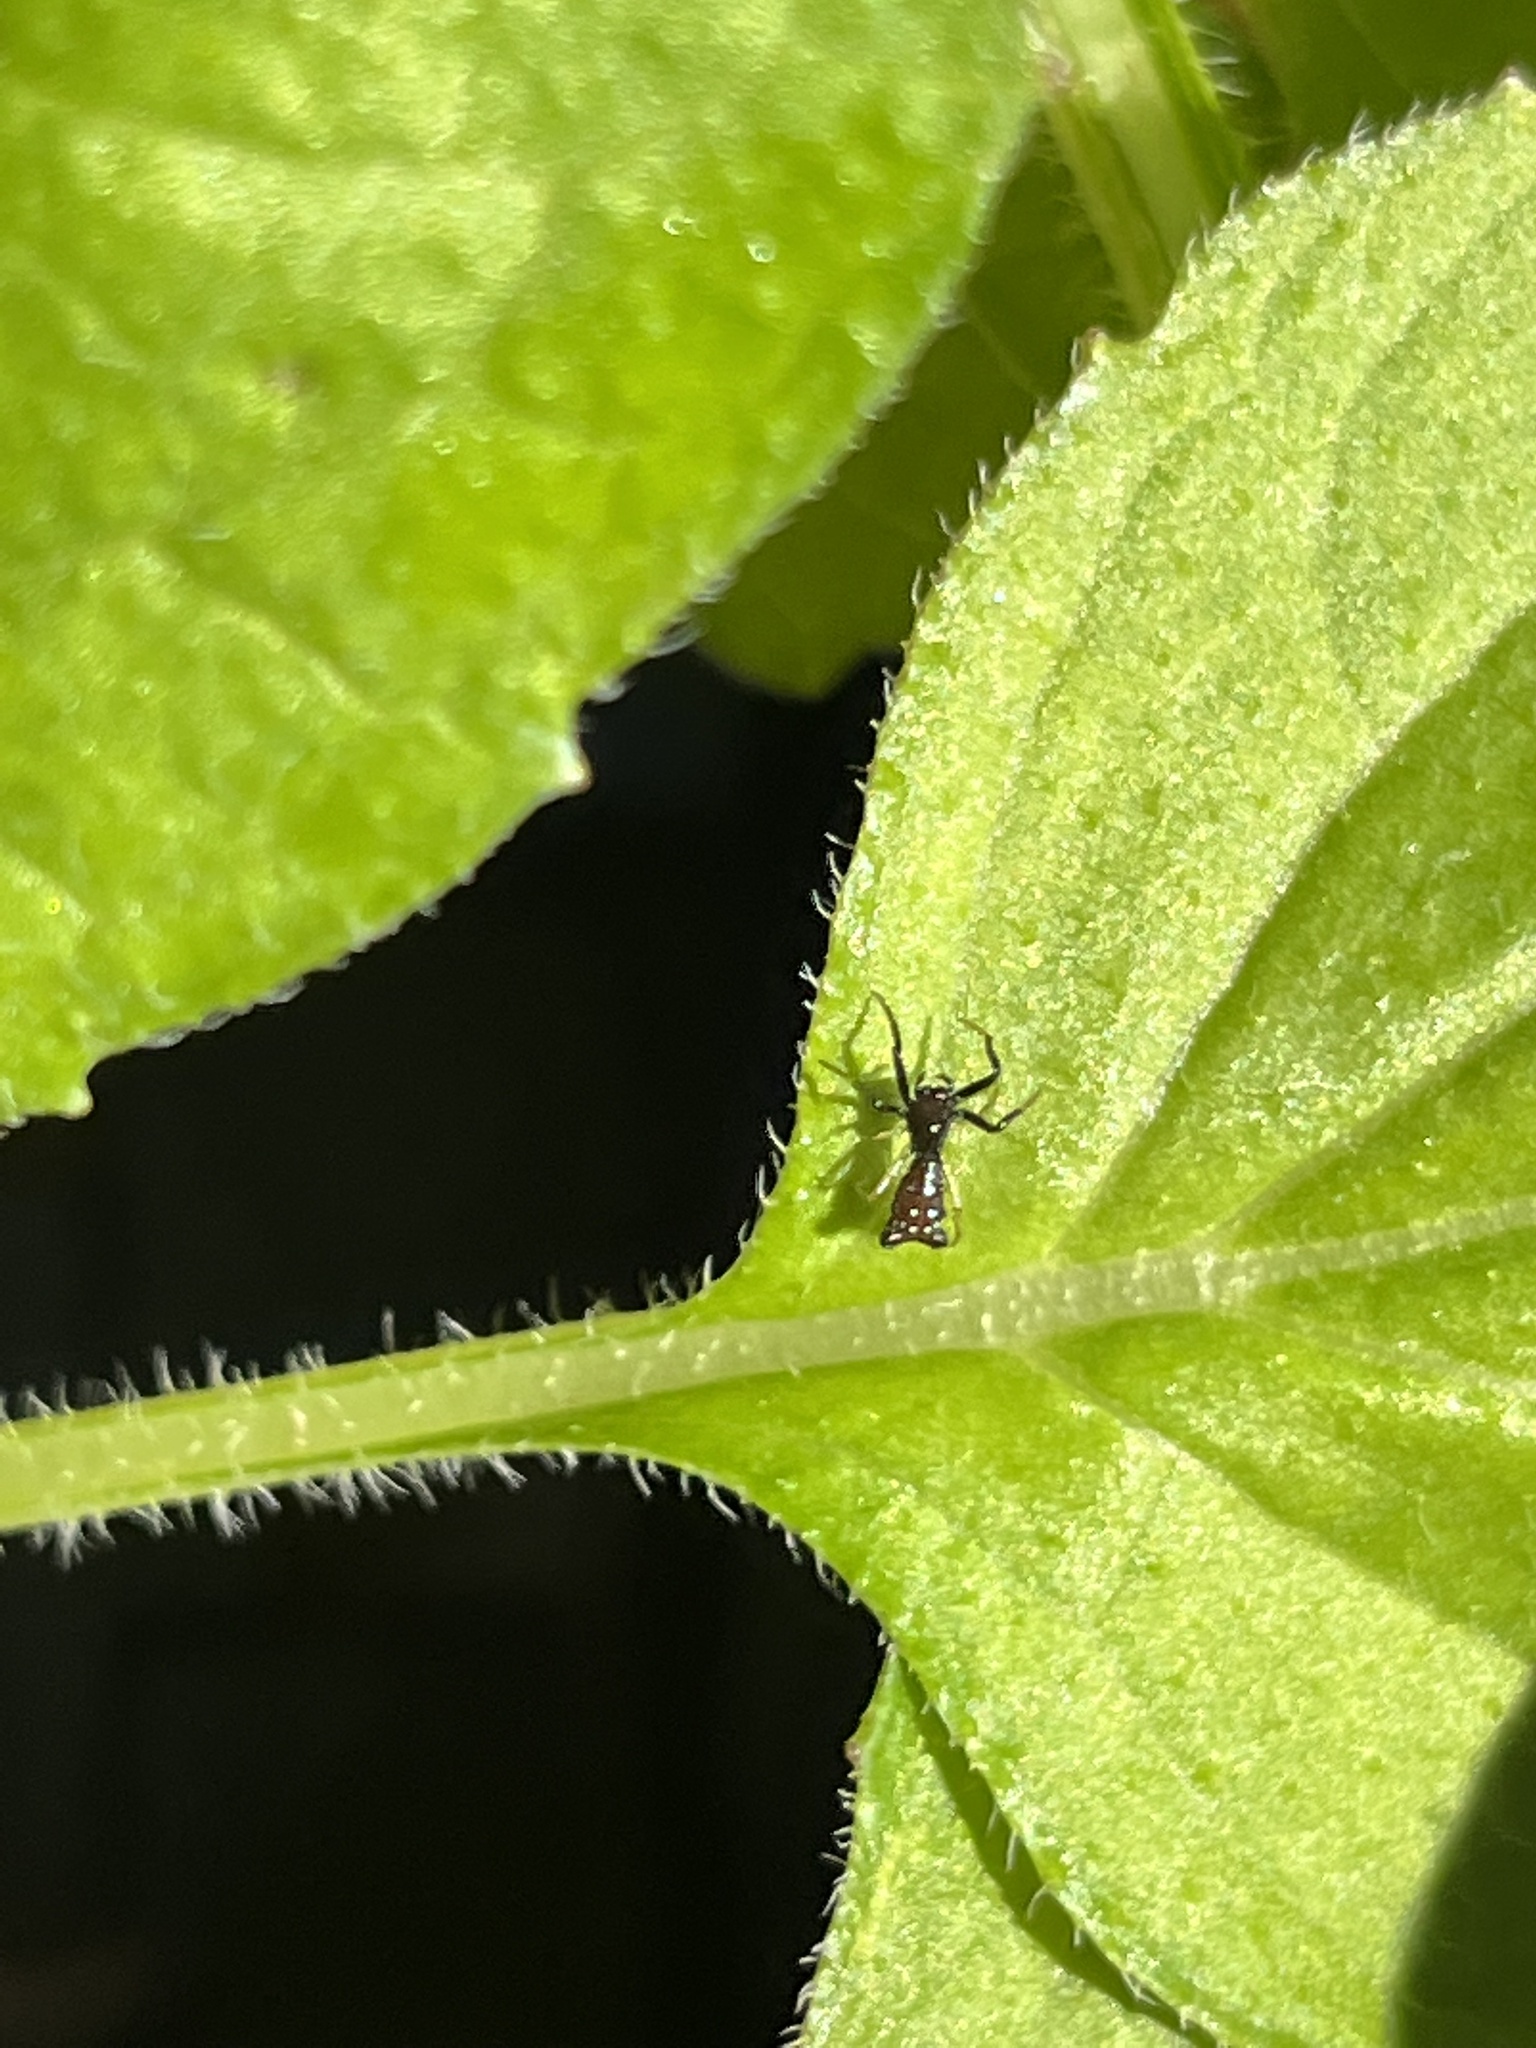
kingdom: Animalia
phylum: Arthropoda
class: Arachnida
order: Araneae
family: Araneidae
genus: Micrathena
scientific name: Micrathena sagittata
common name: Orb weavers
